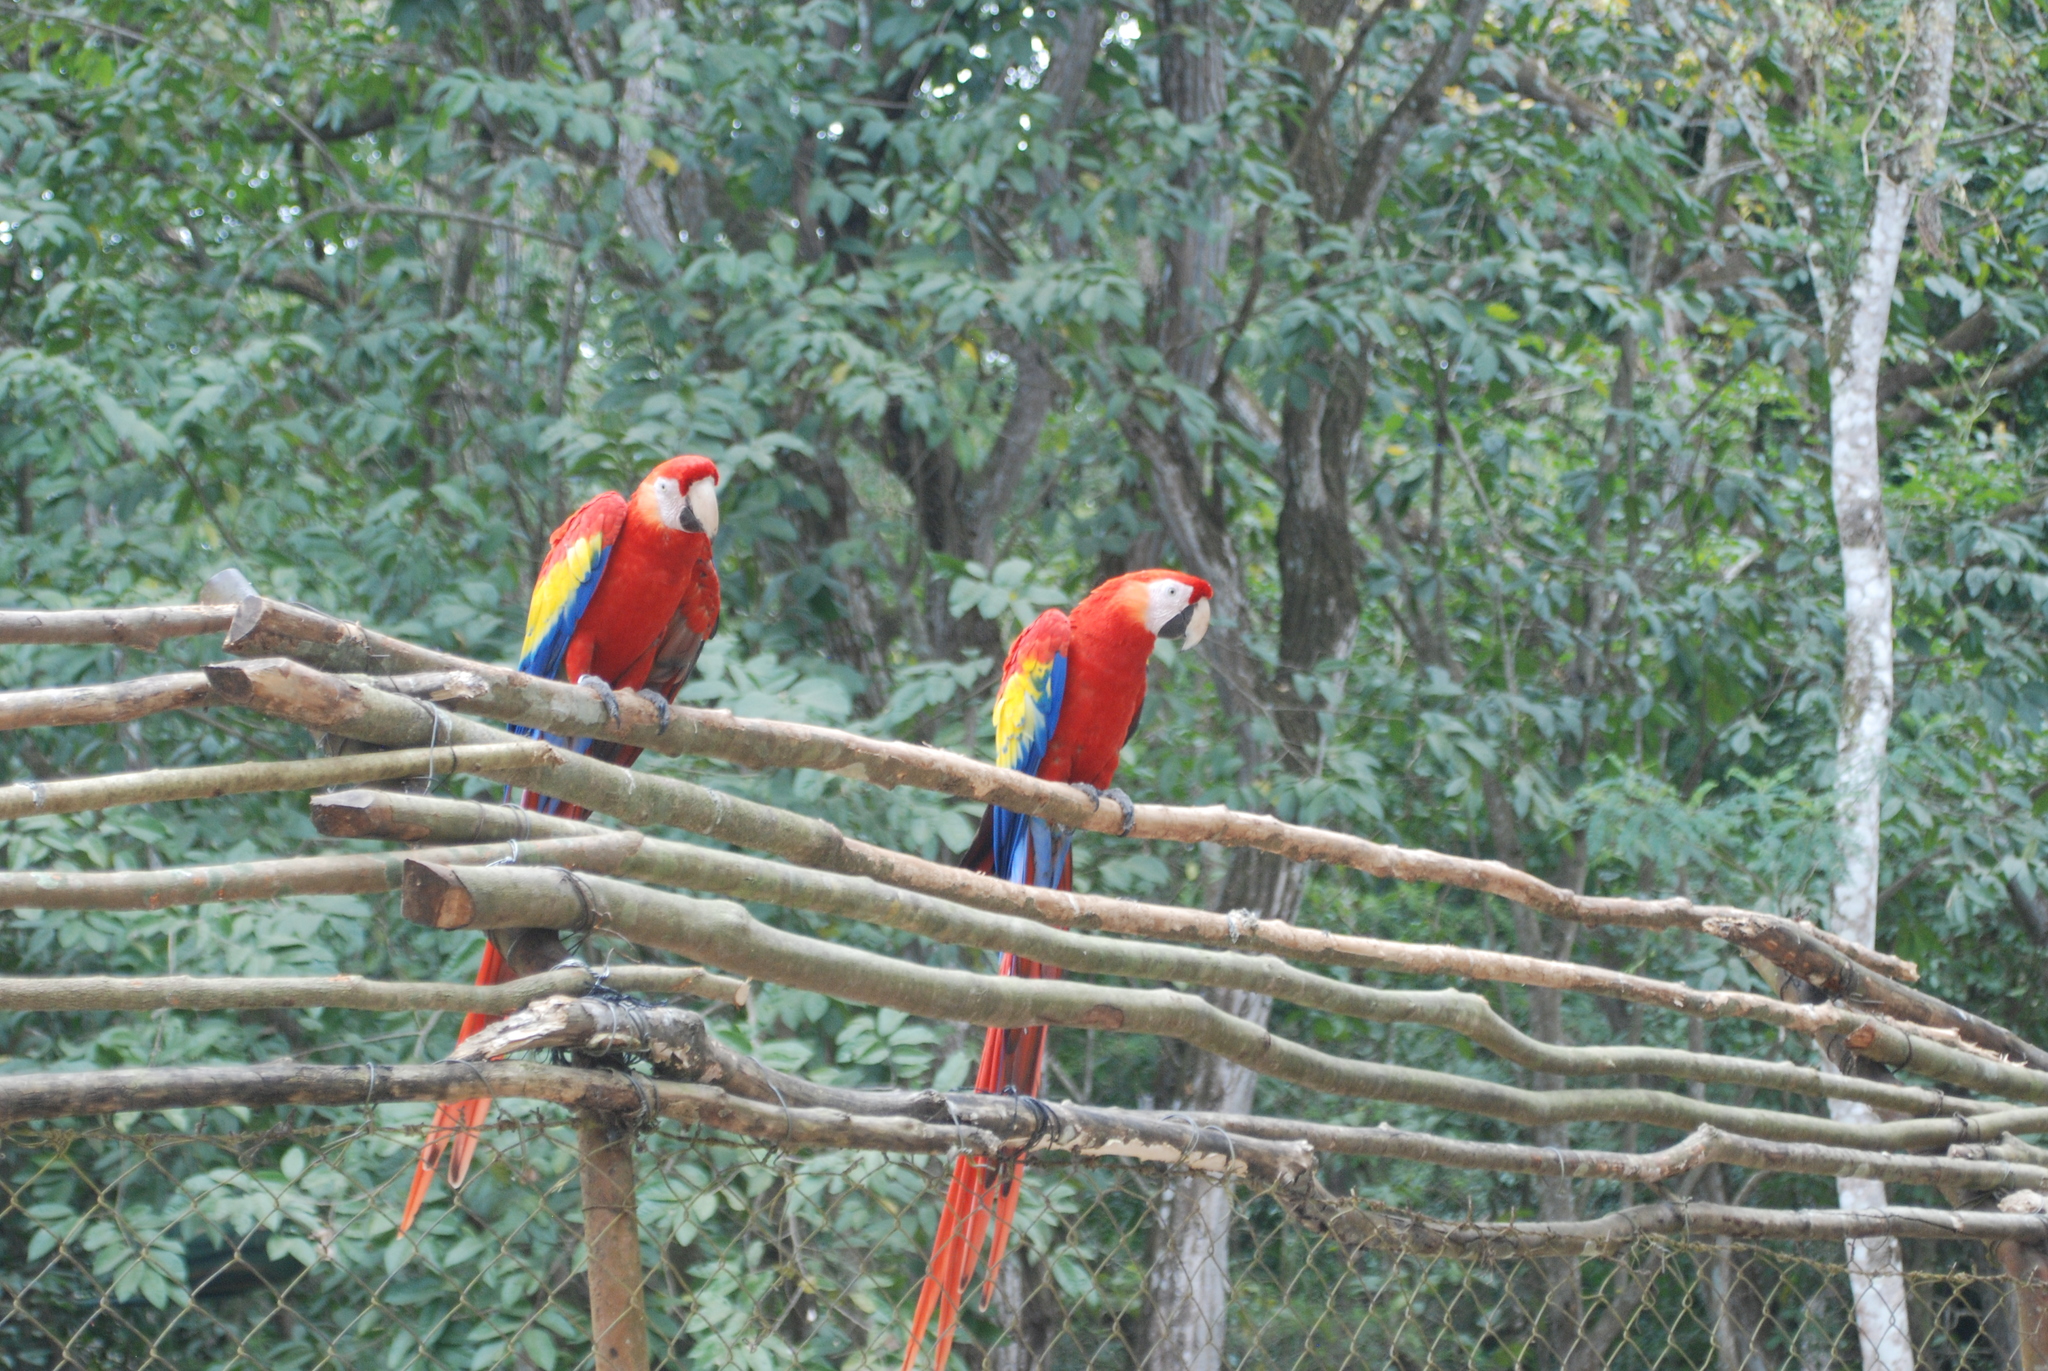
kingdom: Animalia
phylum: Chordata
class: Aves
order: Psittaciformes
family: Psittacidae
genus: Ara
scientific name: Ara macao
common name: Scarlet macaw
